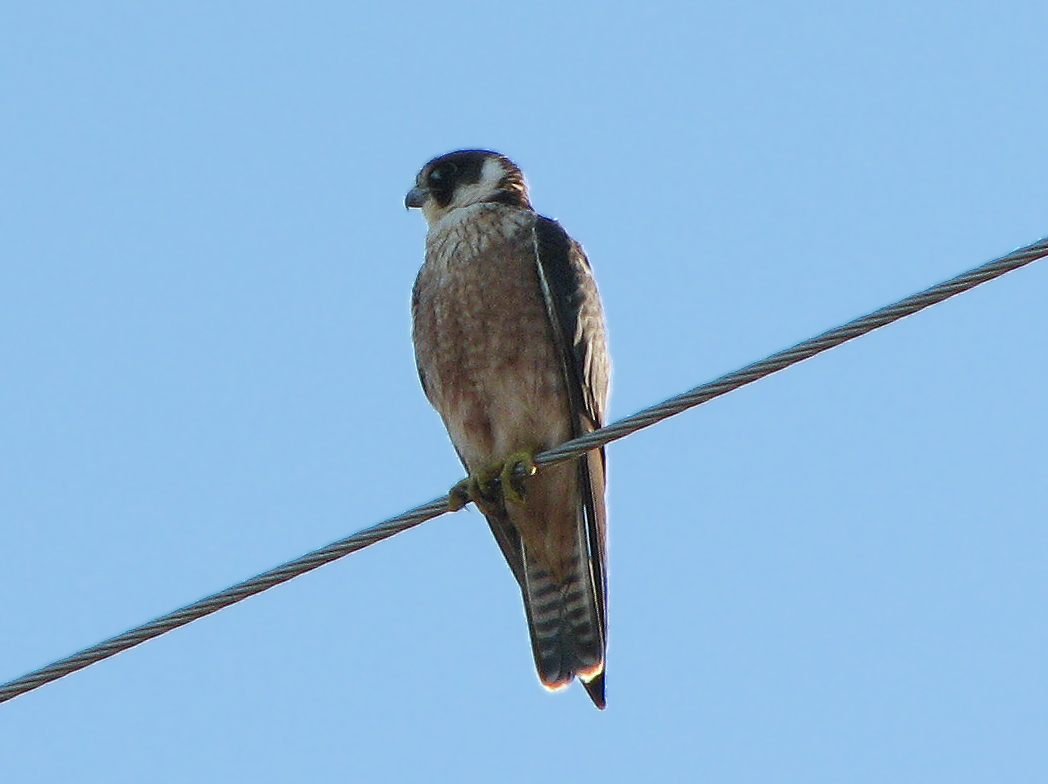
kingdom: Animalia
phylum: Chordata
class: Aves
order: Falconiformes
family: Falconidae
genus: Falco
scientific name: Falco longipennis
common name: Australian hobby
